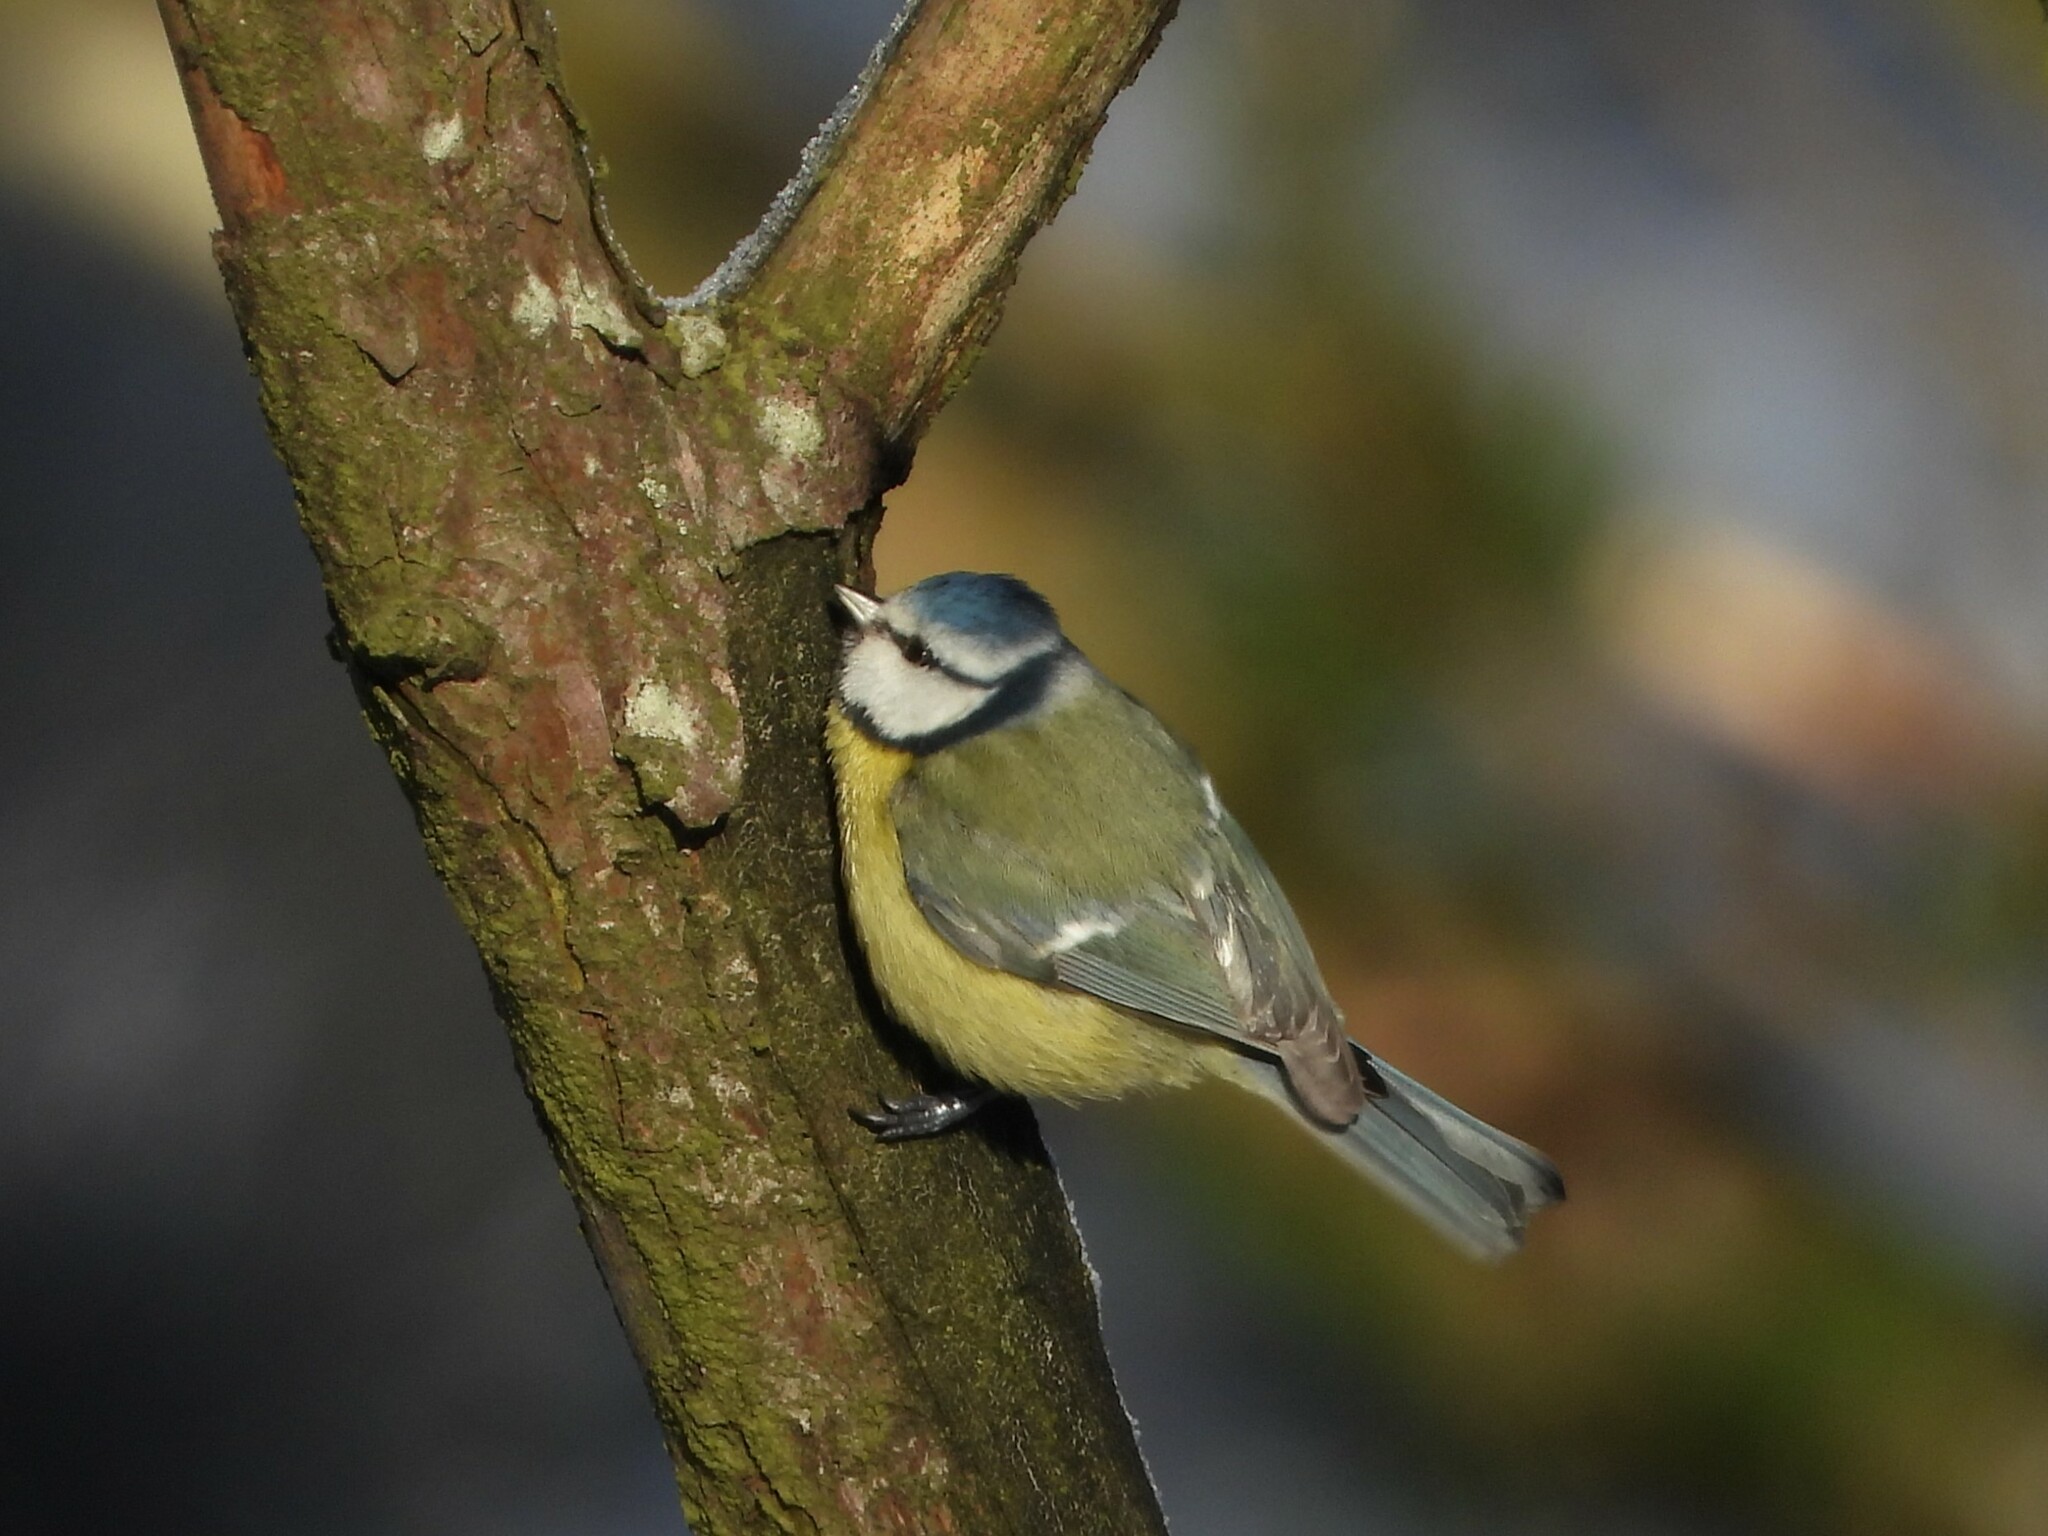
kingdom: Animalia
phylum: Chordata
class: Aves
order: Passeriformes
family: Paridae
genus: Cyanistes
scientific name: Cyanistes caeruleus
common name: Eurasian blue tit
